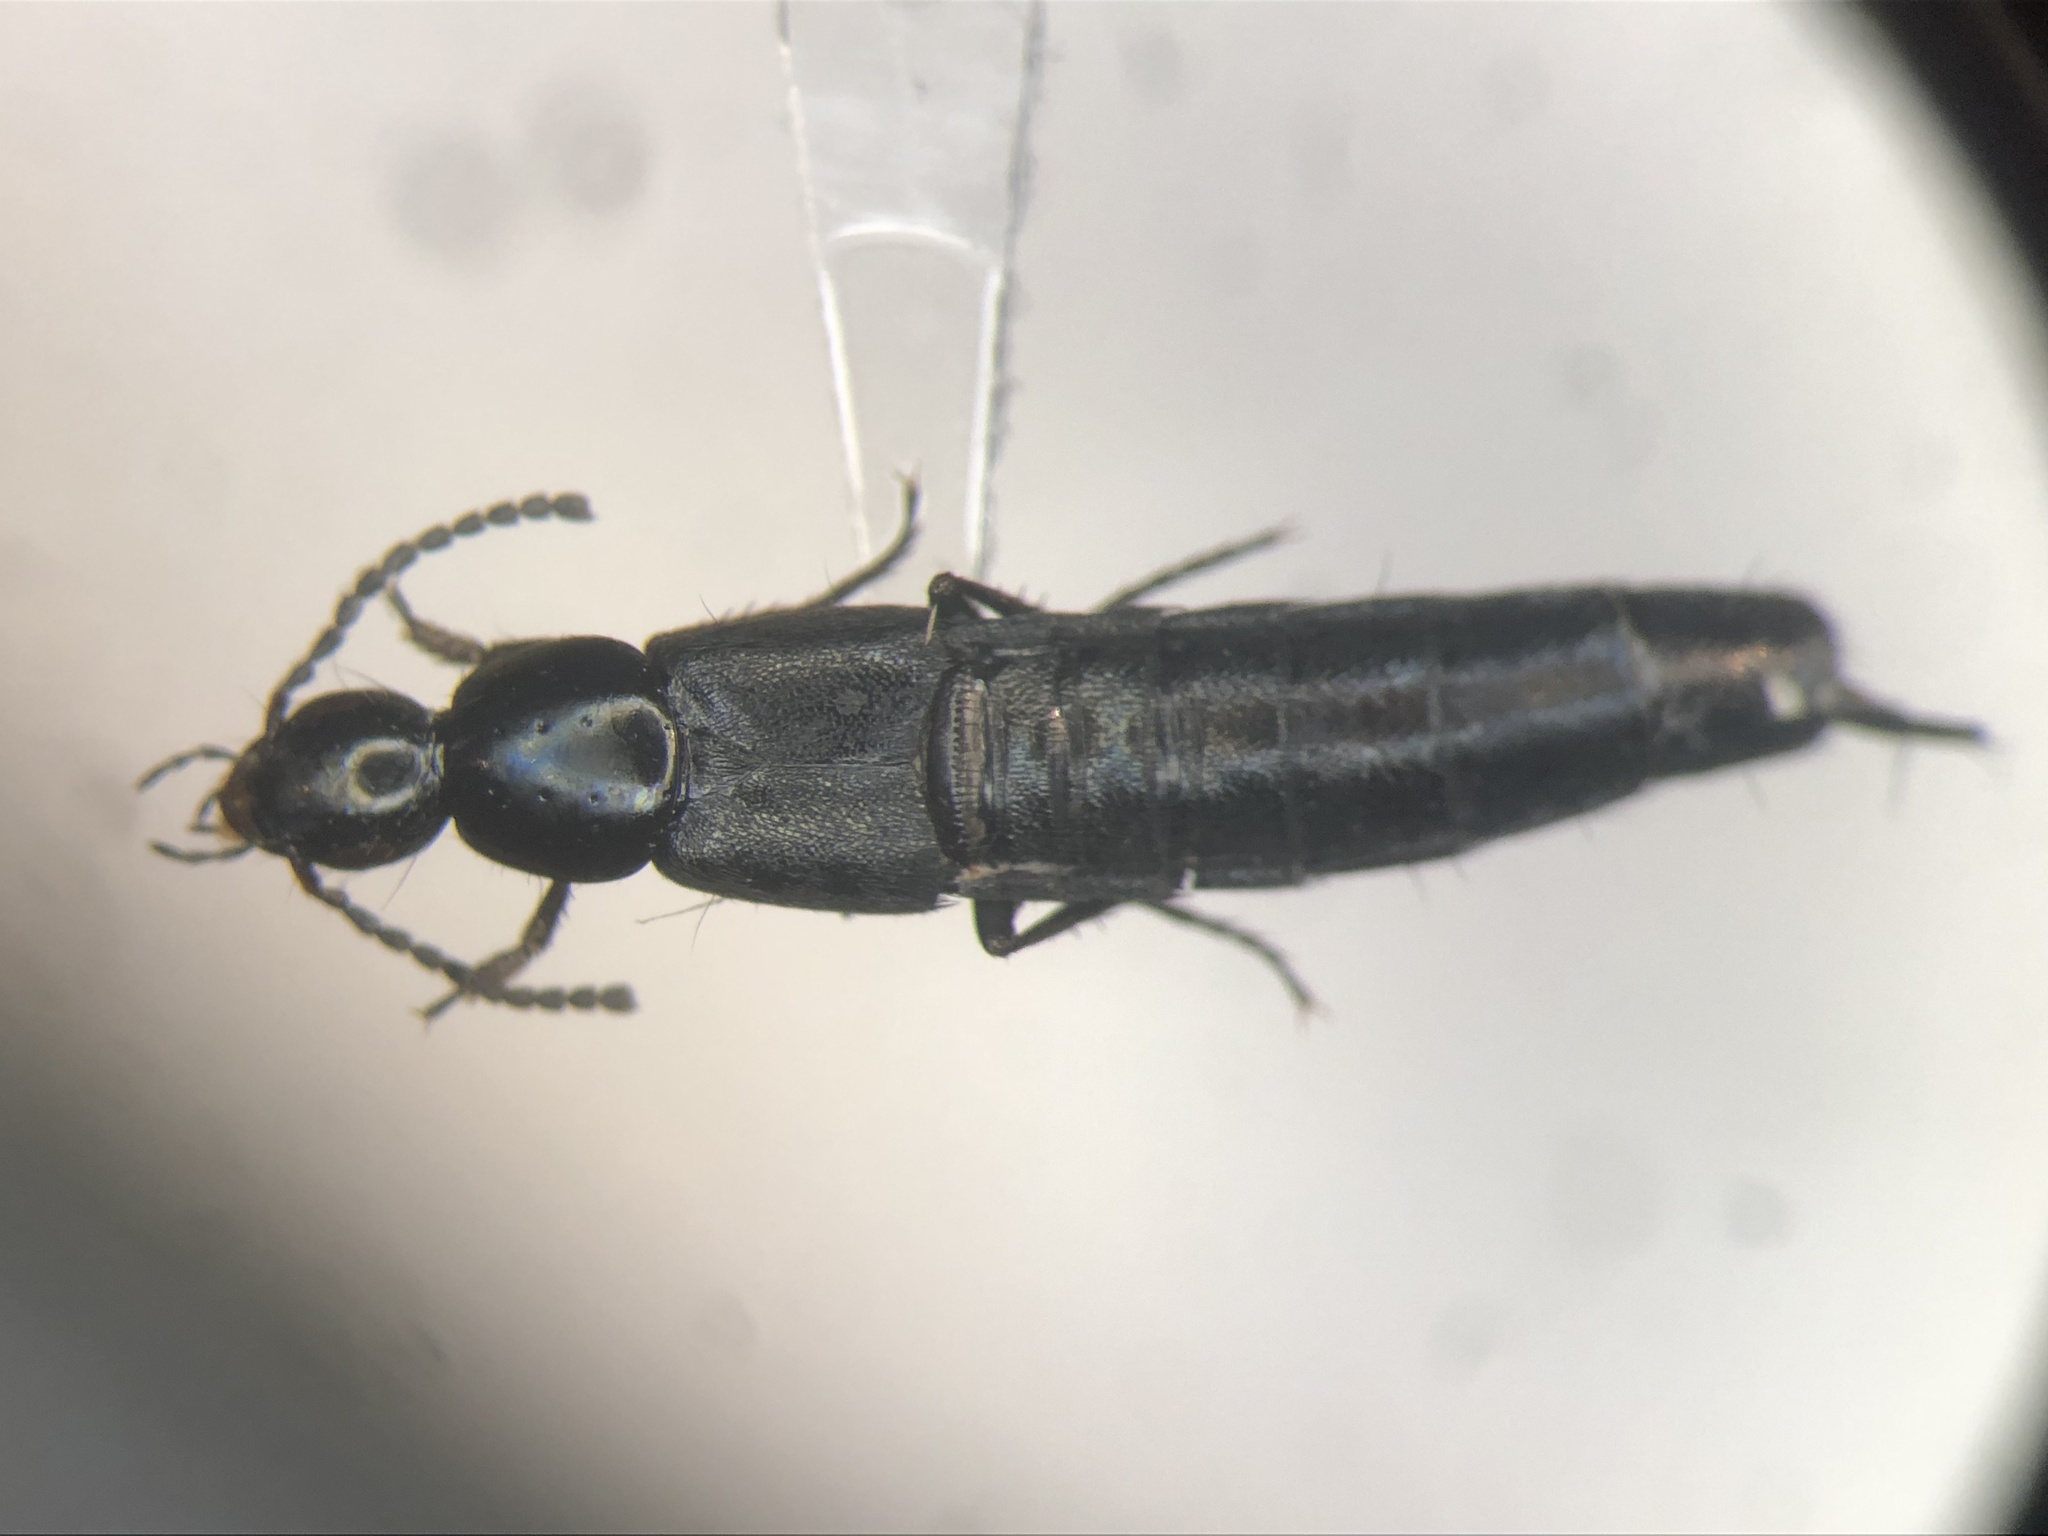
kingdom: Animalia
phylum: Arthropoda
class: Insecta
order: Coleoptera
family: Staphylinidae
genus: Philonthus
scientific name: Philonthus cognatus
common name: Staph beetle
